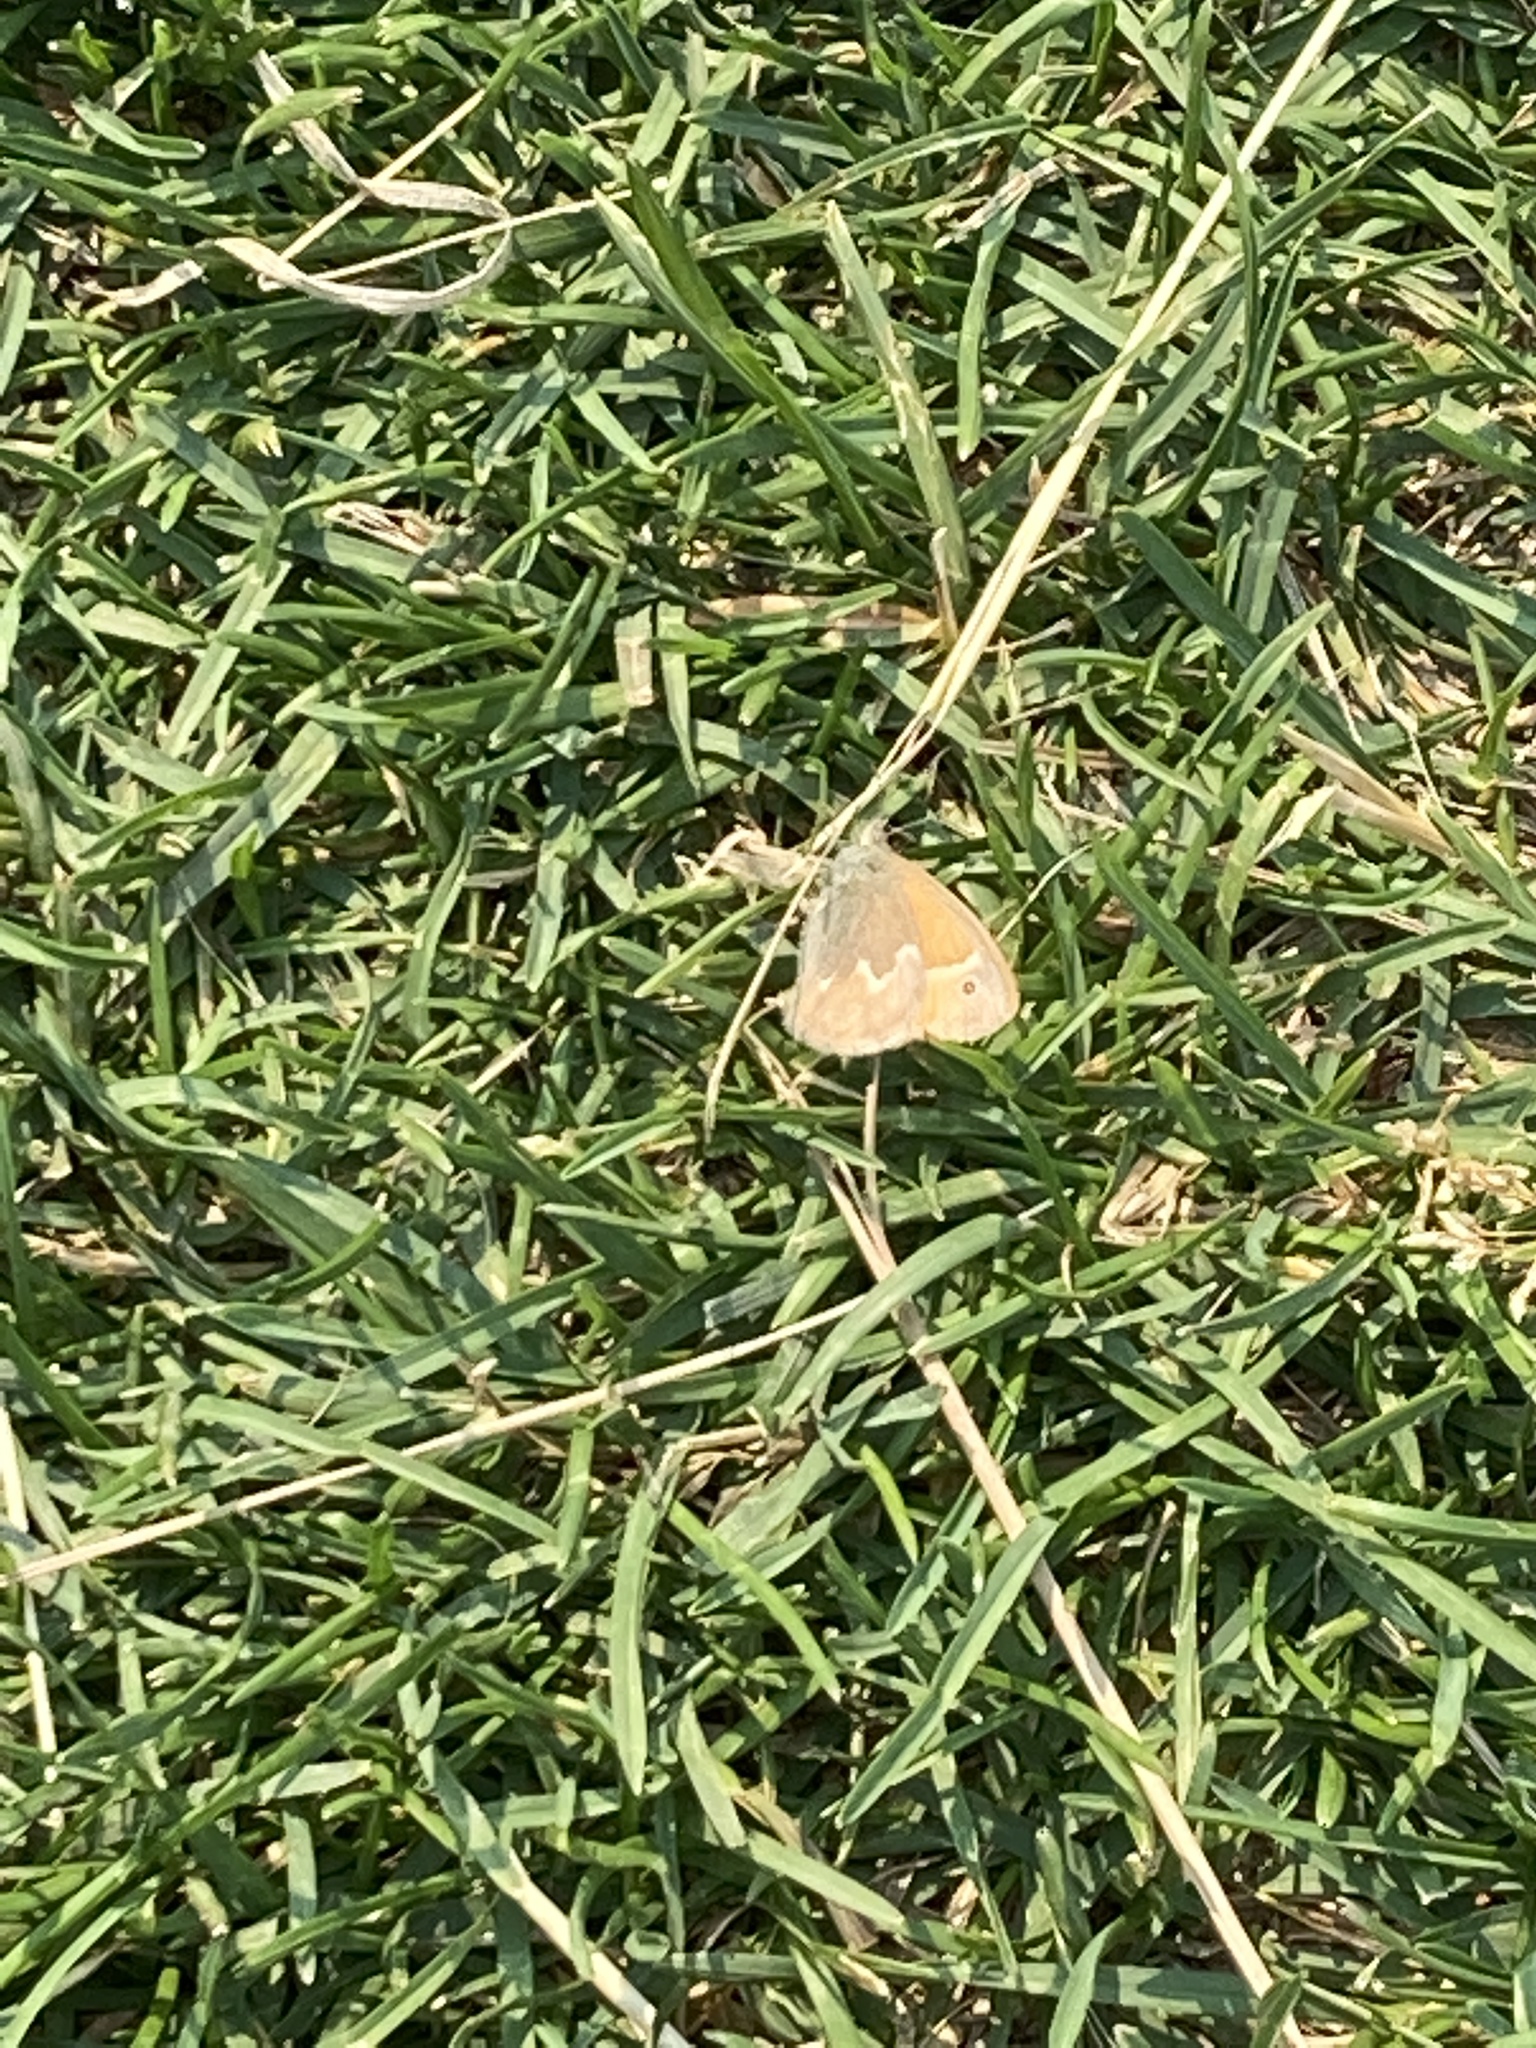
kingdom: Animalia
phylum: Arthropoda
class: Insecta
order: Lepidoptera
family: Nymphalidae
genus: Coenonympha
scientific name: Coenonympha california
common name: Common ringlet
